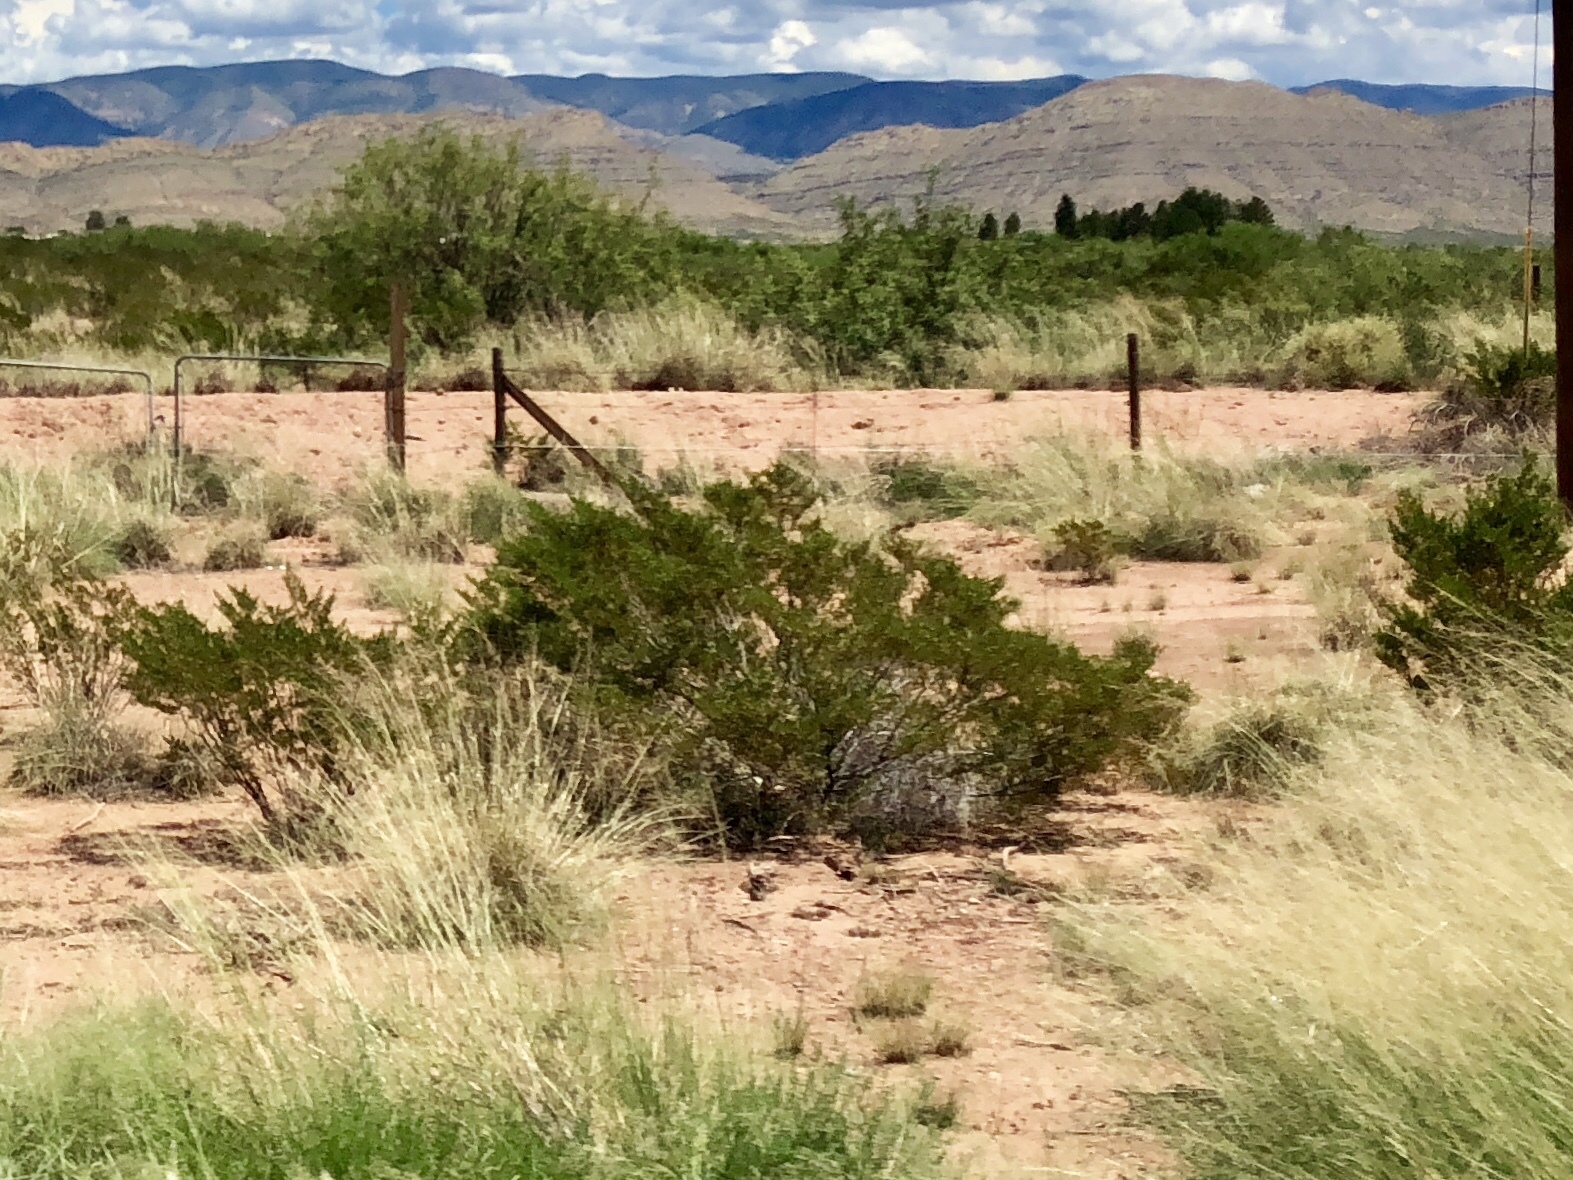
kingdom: Plantae
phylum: Tracheophyta
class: Magnoliopsida
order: Zygophyllales
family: Zygophyllaceae
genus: Larrea
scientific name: Larrea tridentata
